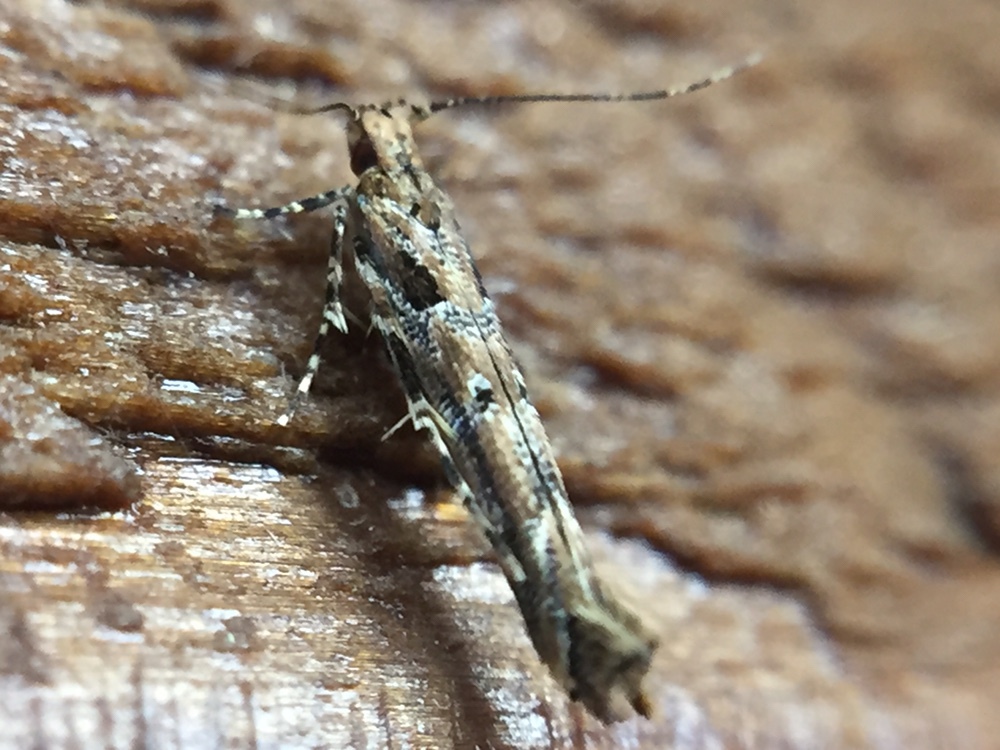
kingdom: Animalia
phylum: Arthropoda
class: Insecta
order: Lepidoptera
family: Cosmopterigidae
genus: Pyroderces
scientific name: Pyroderces aellotricha
